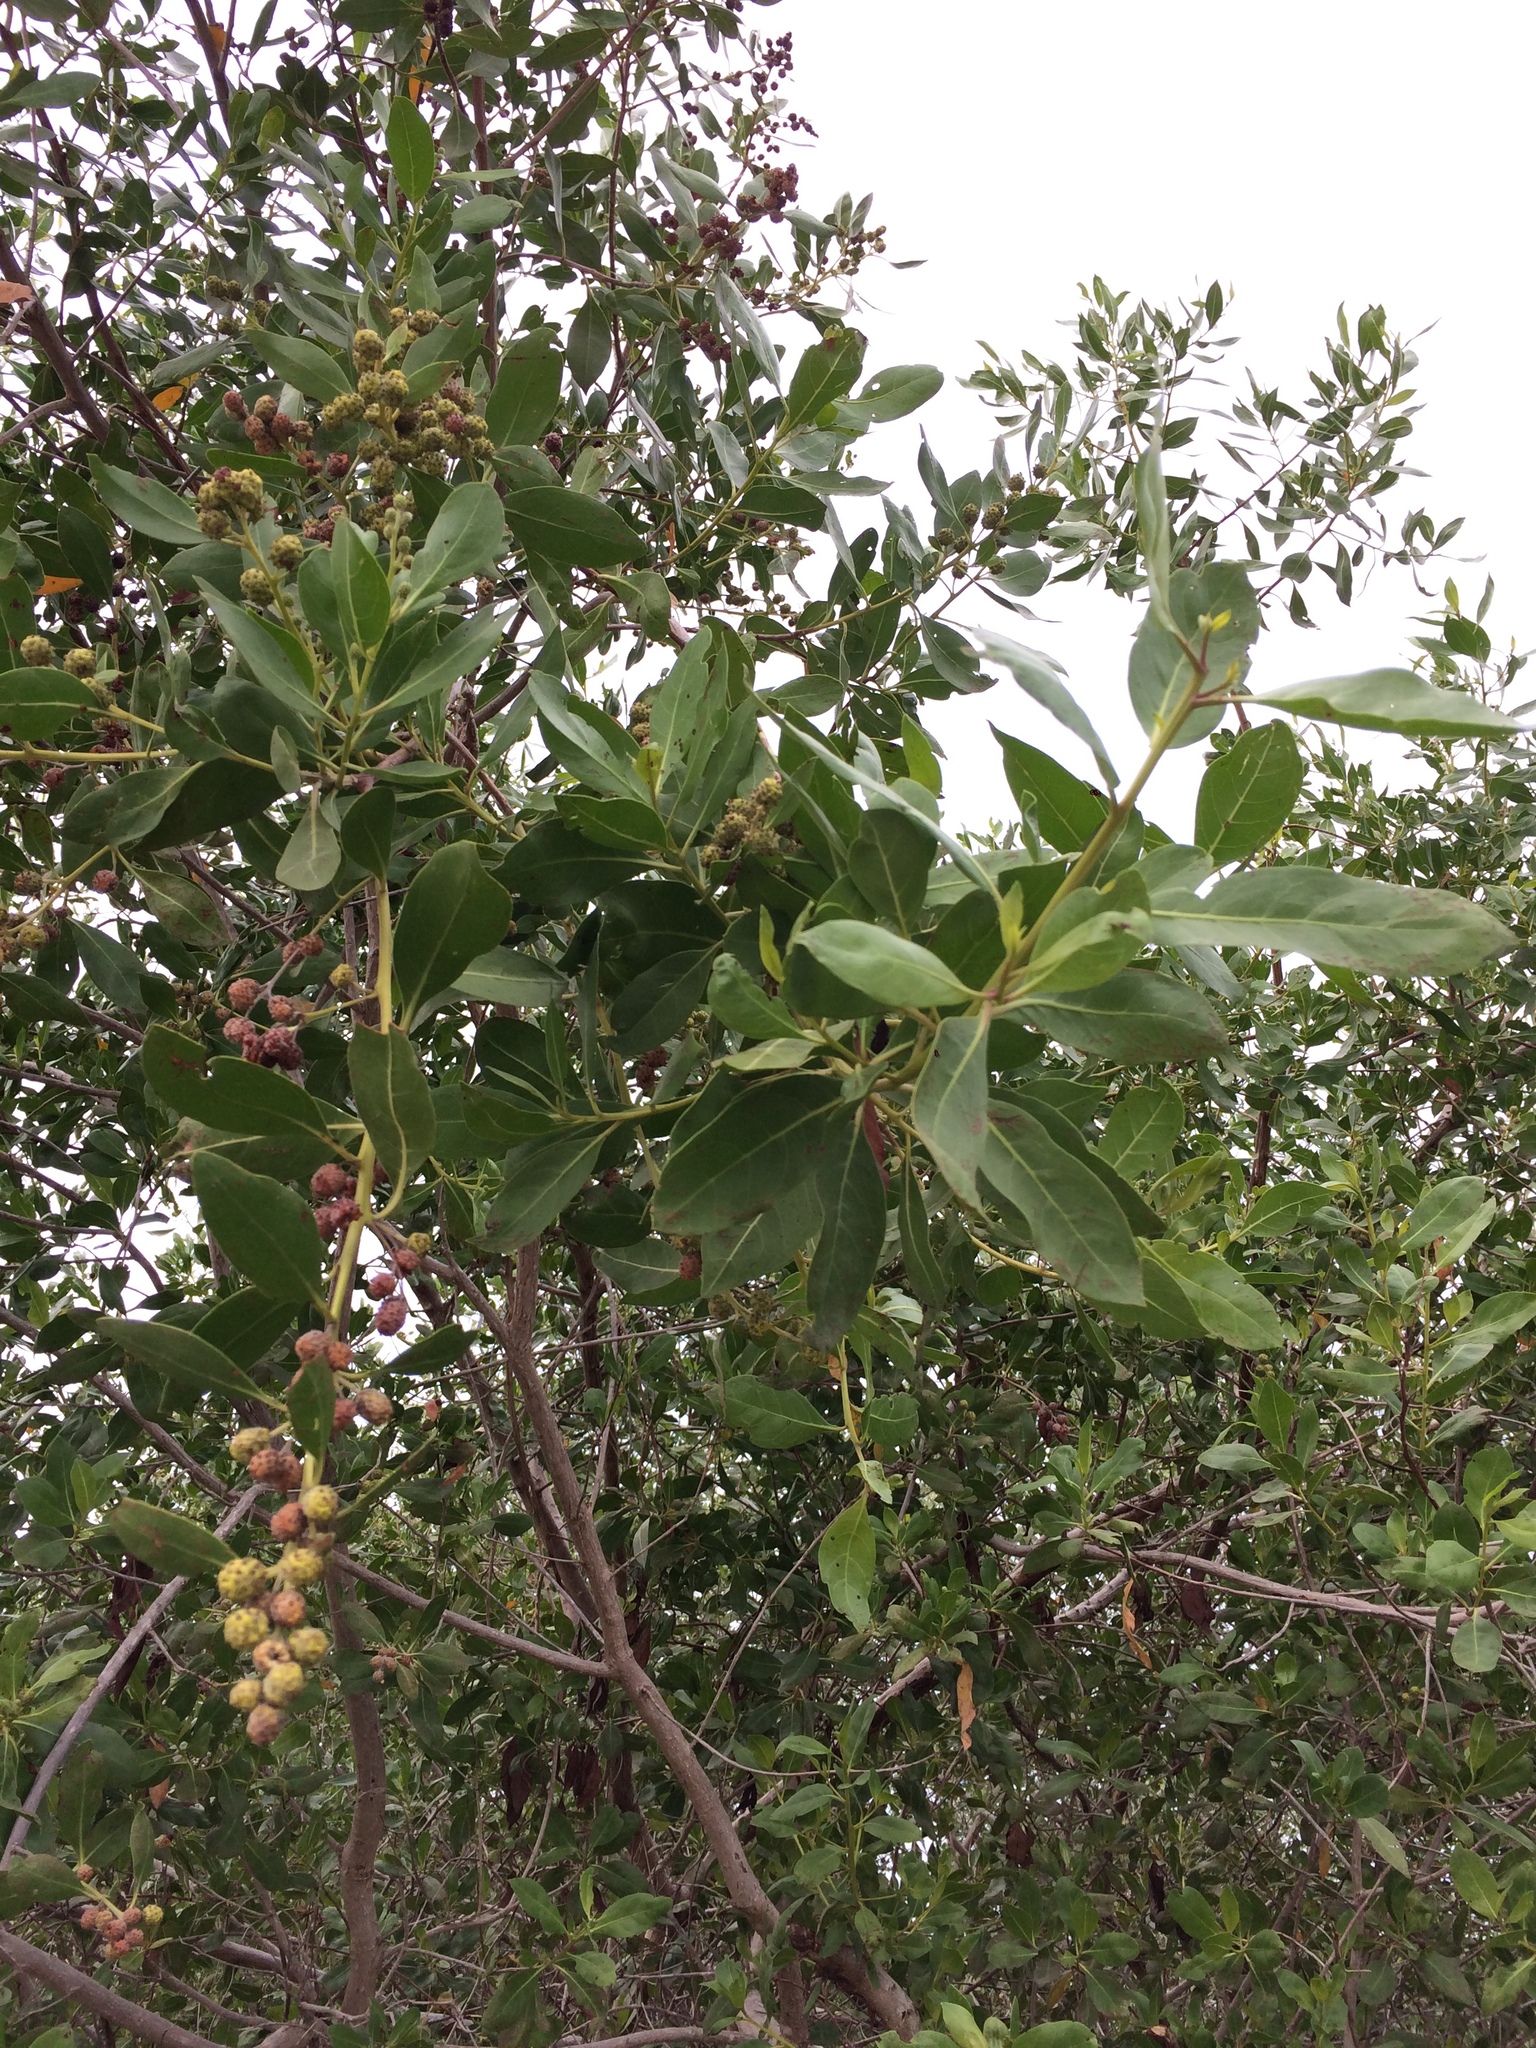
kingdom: Plantae
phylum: Tracheophyta
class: Magnoliopsida
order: Myrtales
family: Combretaceae
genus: Conocarpus
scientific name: Conocarpus erectus
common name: Button mangrove
